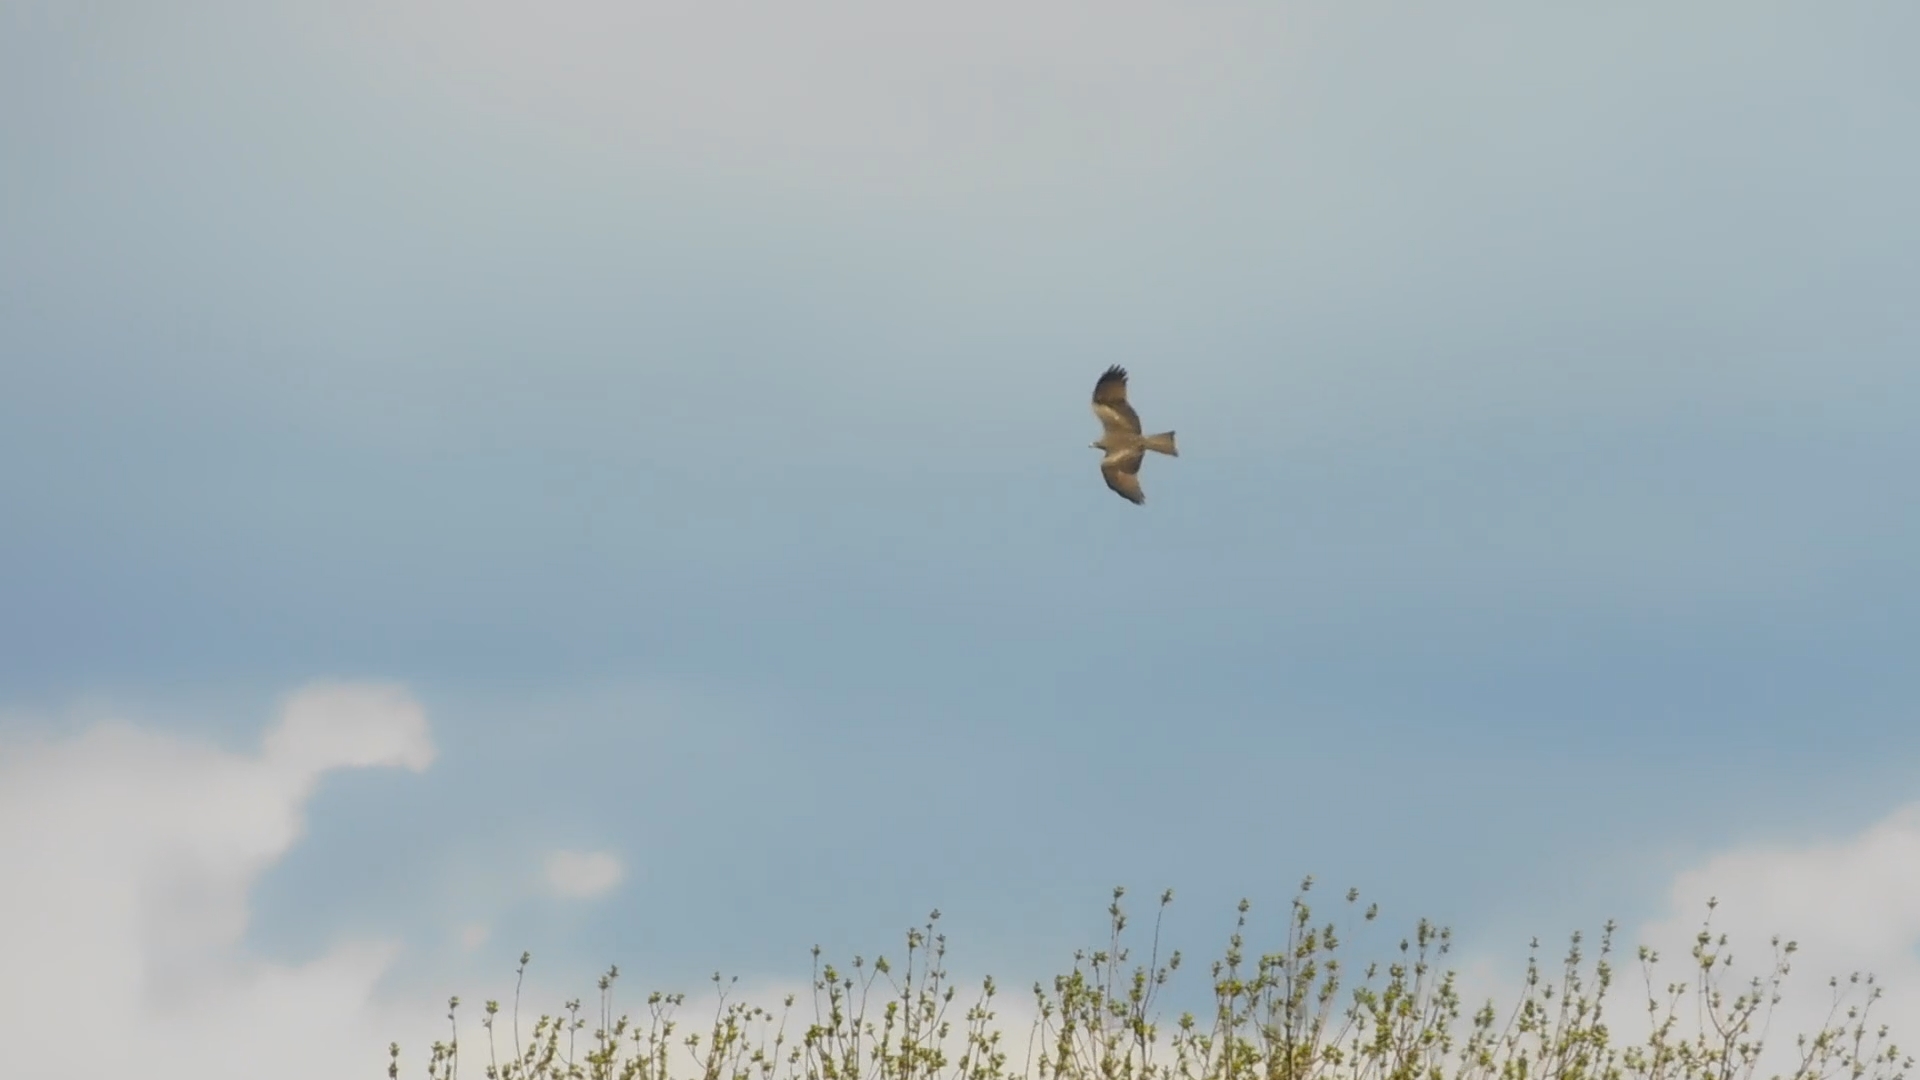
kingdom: Animalia
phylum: Chordata
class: Aves
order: Accipitriformes
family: Accipitridae
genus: Milvus
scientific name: Milvus migrans
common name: Black kite
